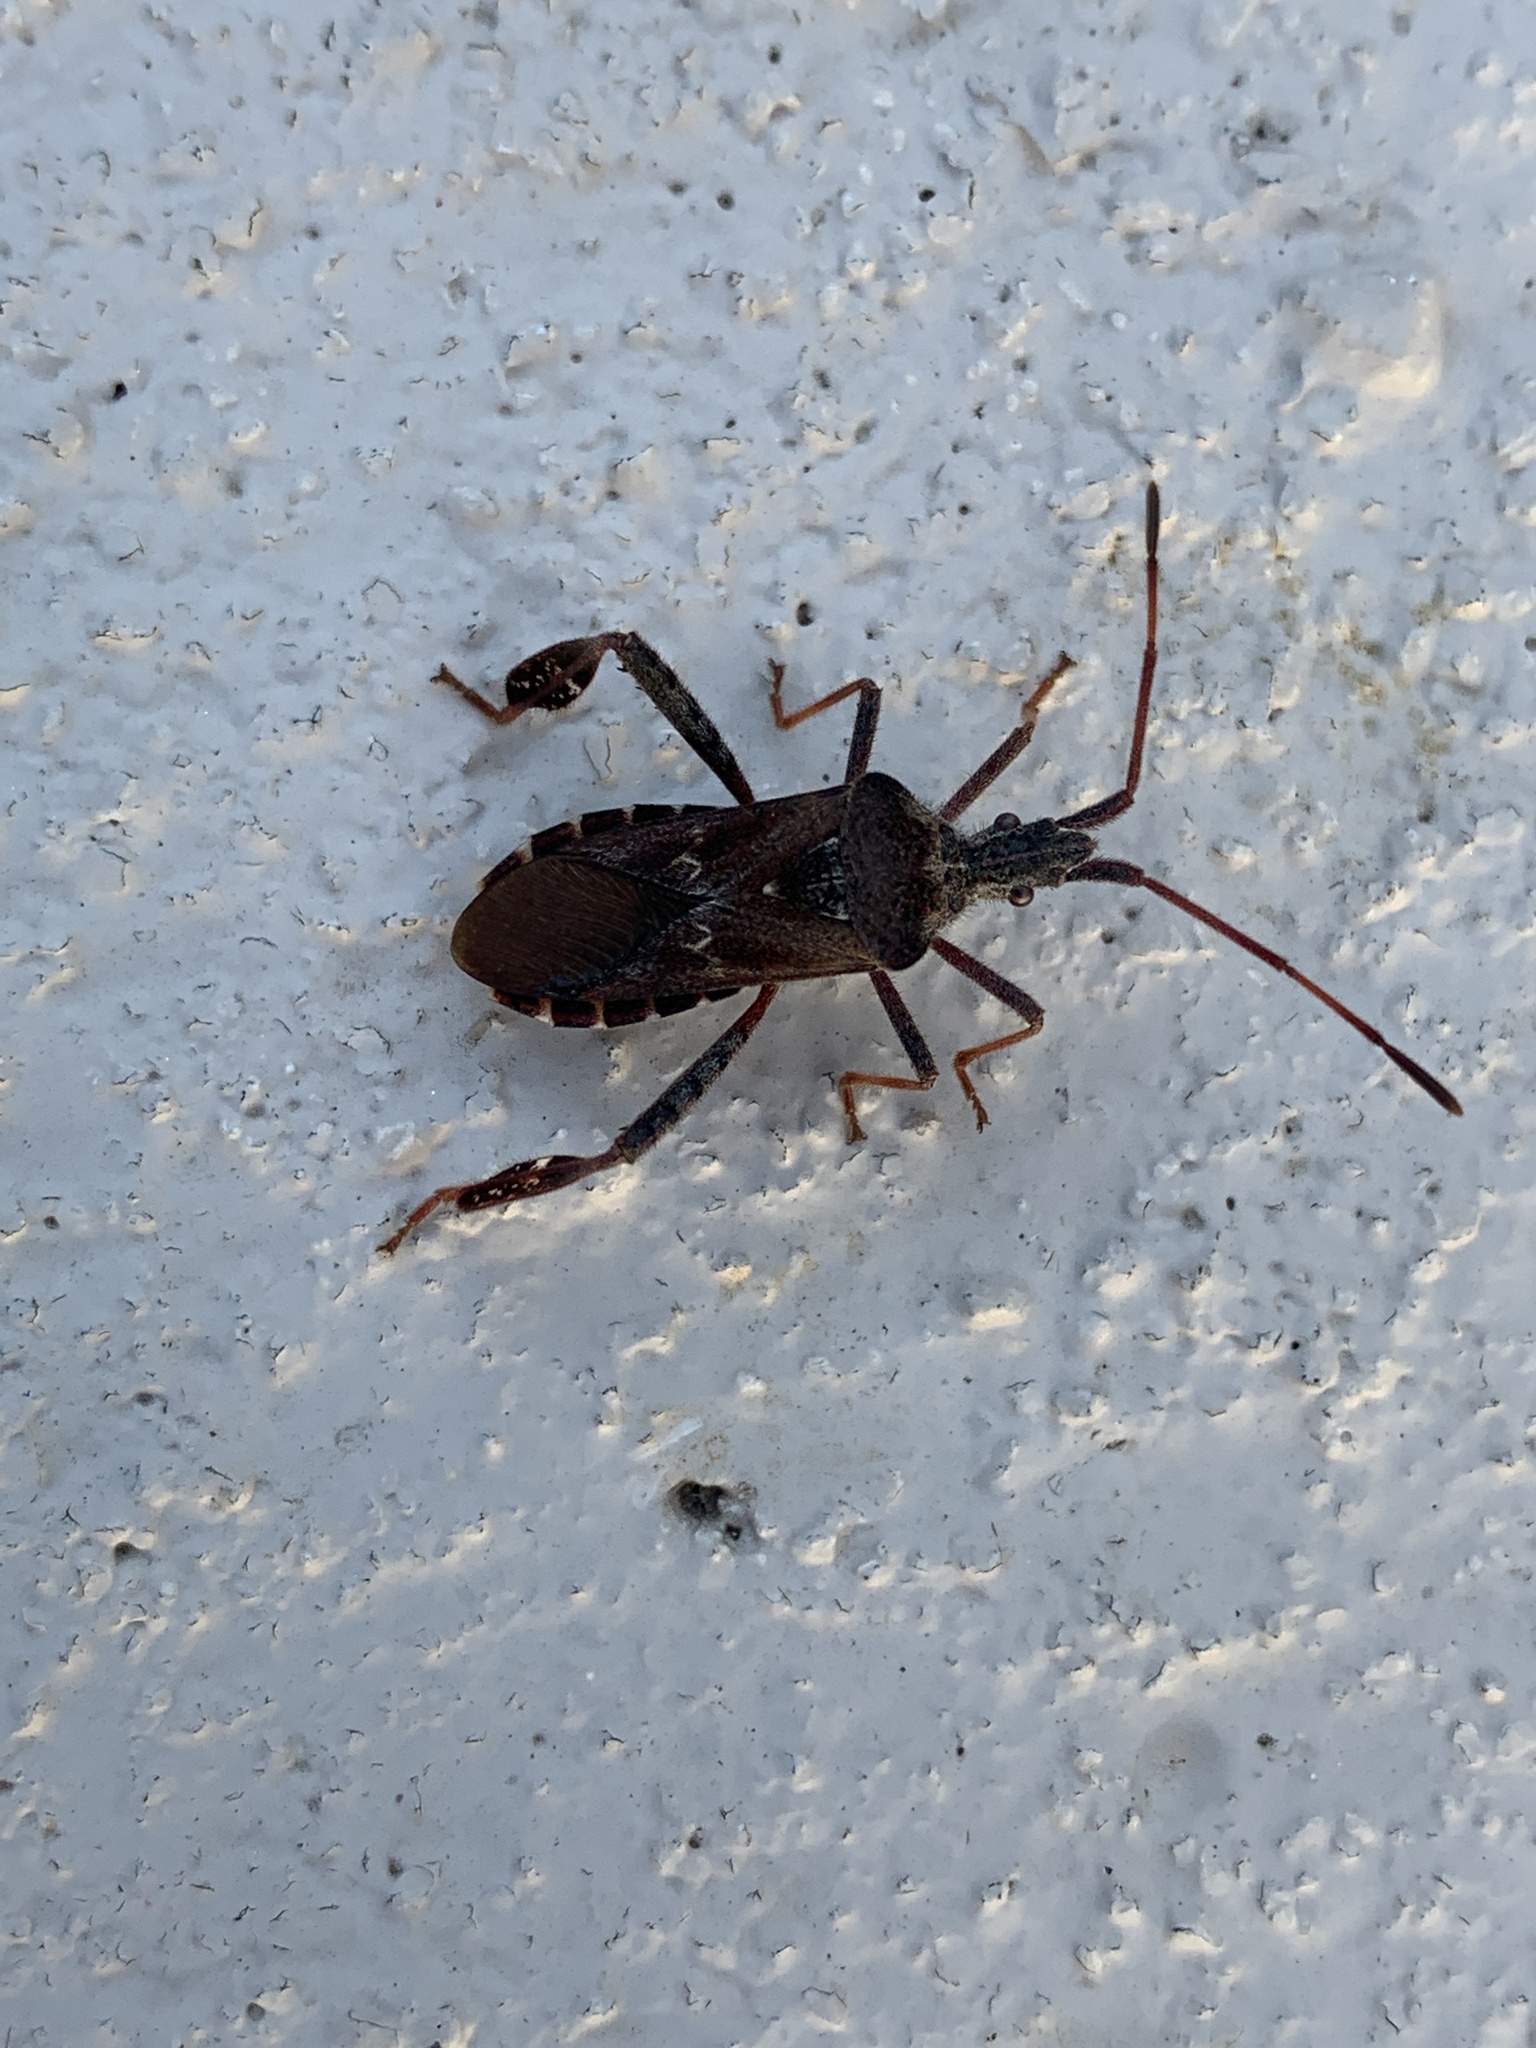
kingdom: Animalia
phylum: Arthropoda
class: Insecta
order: Hemiptera
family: Coreidae
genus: Leptoglossus
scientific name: Leptoglossus corculus
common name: Southern pine seed bug
